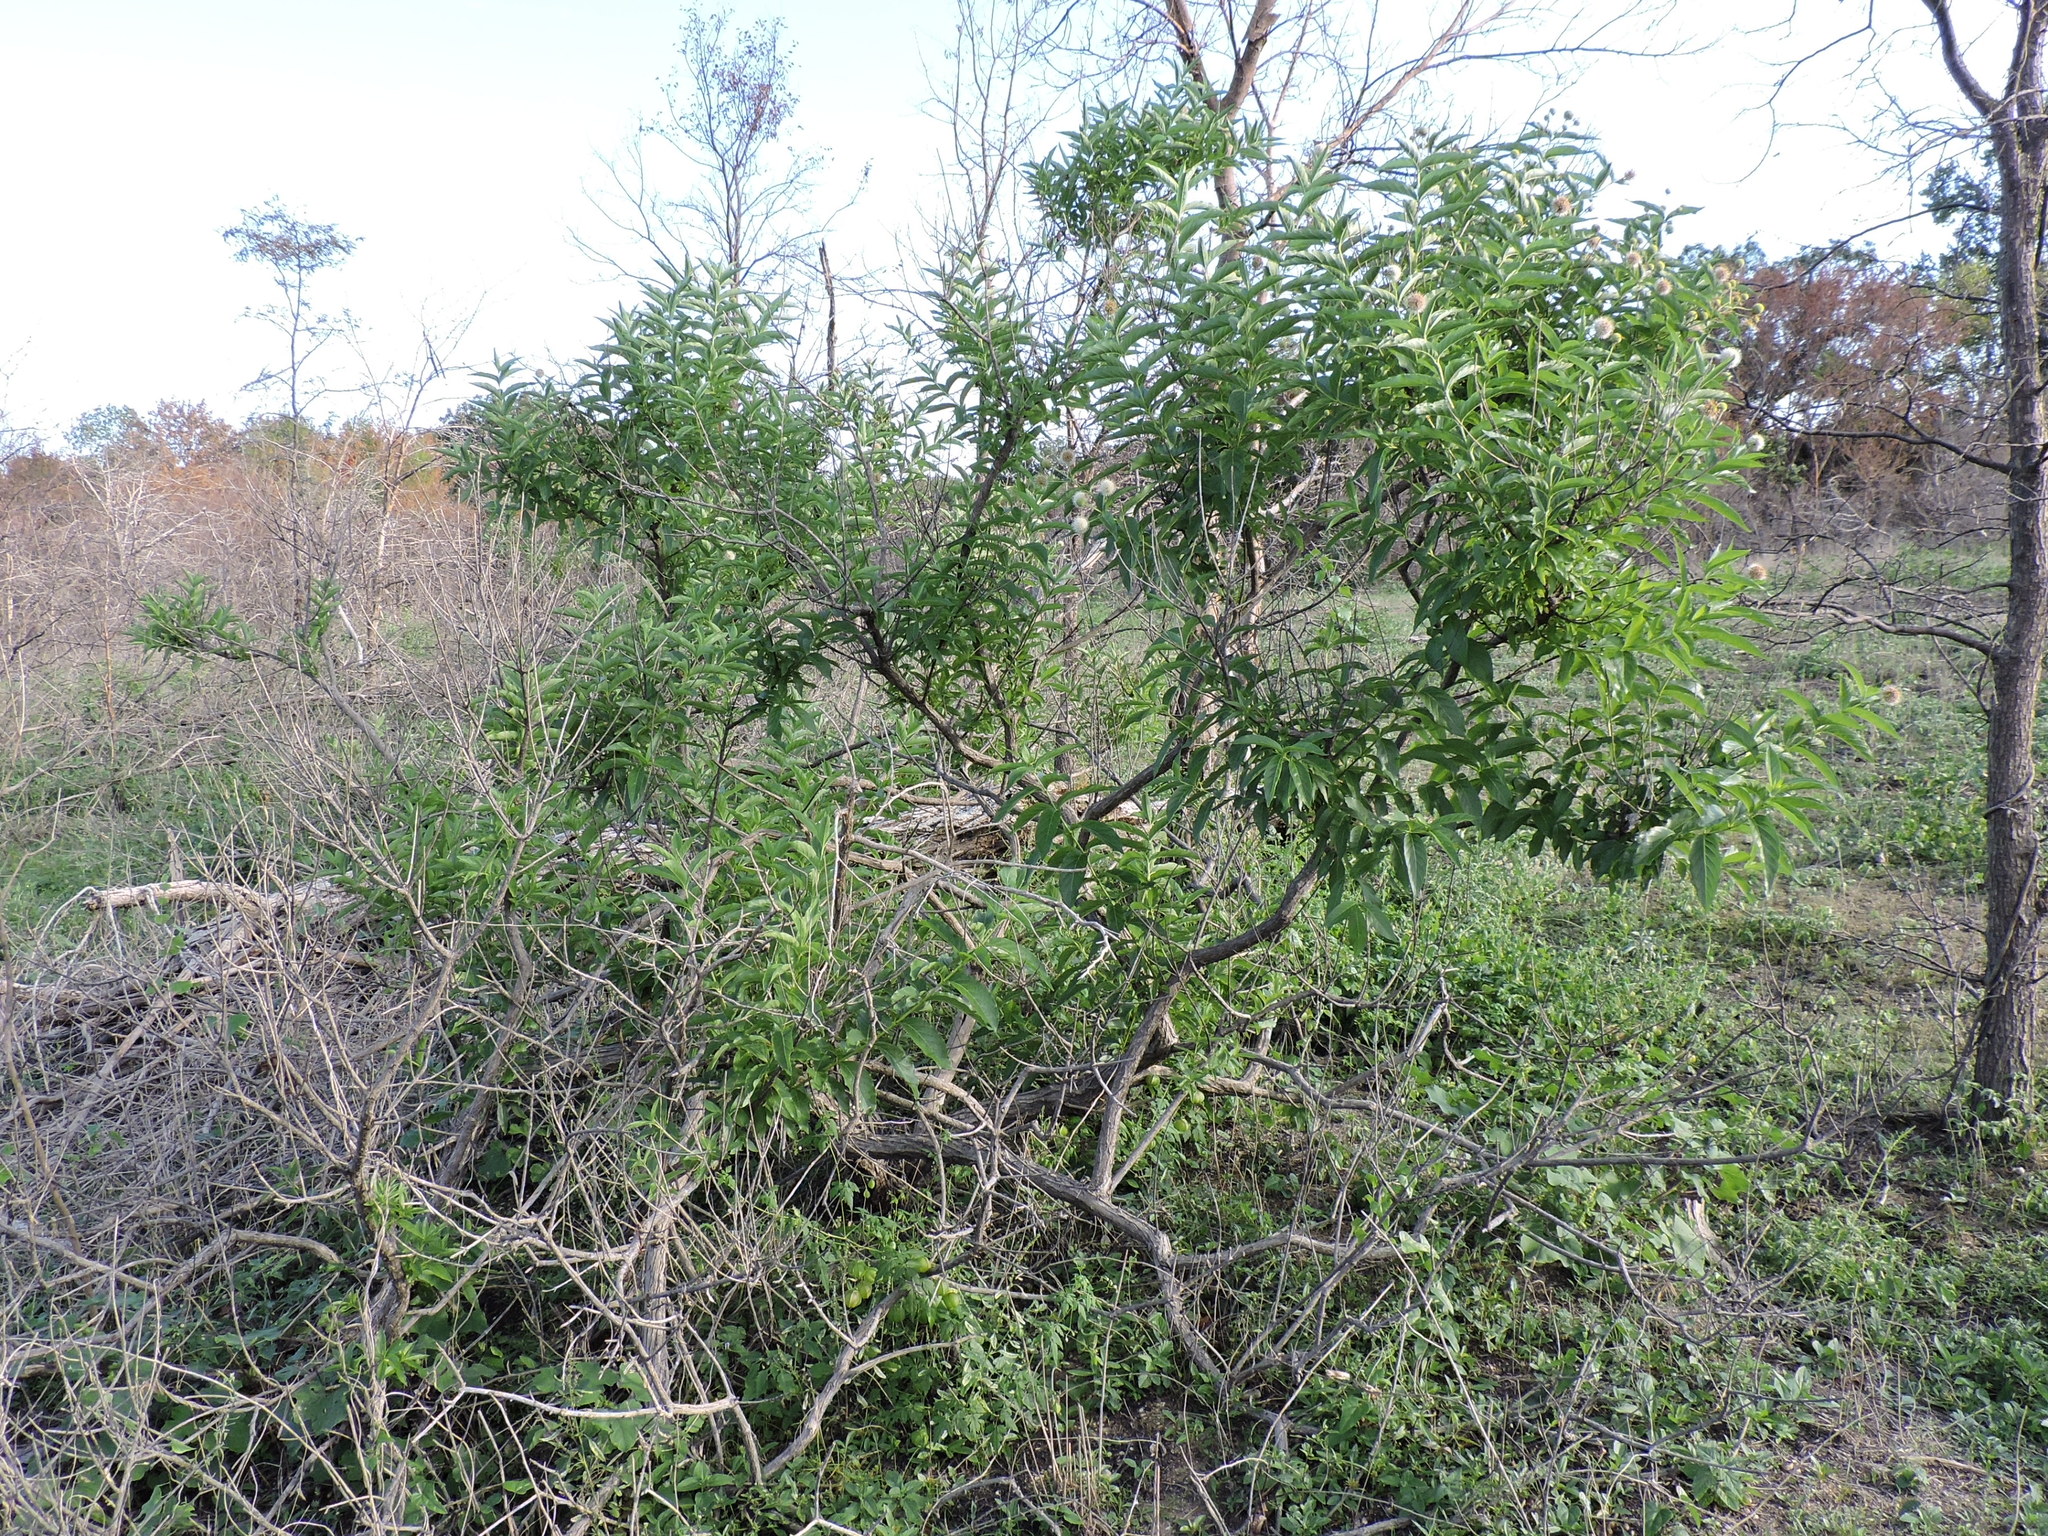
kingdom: Plantae
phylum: Tracheophyta
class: Magnoliopsida
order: Gentianales
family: Rubiaceae
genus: Cephalanthus
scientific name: Cephalanthus occidentalis
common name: Button-willow
